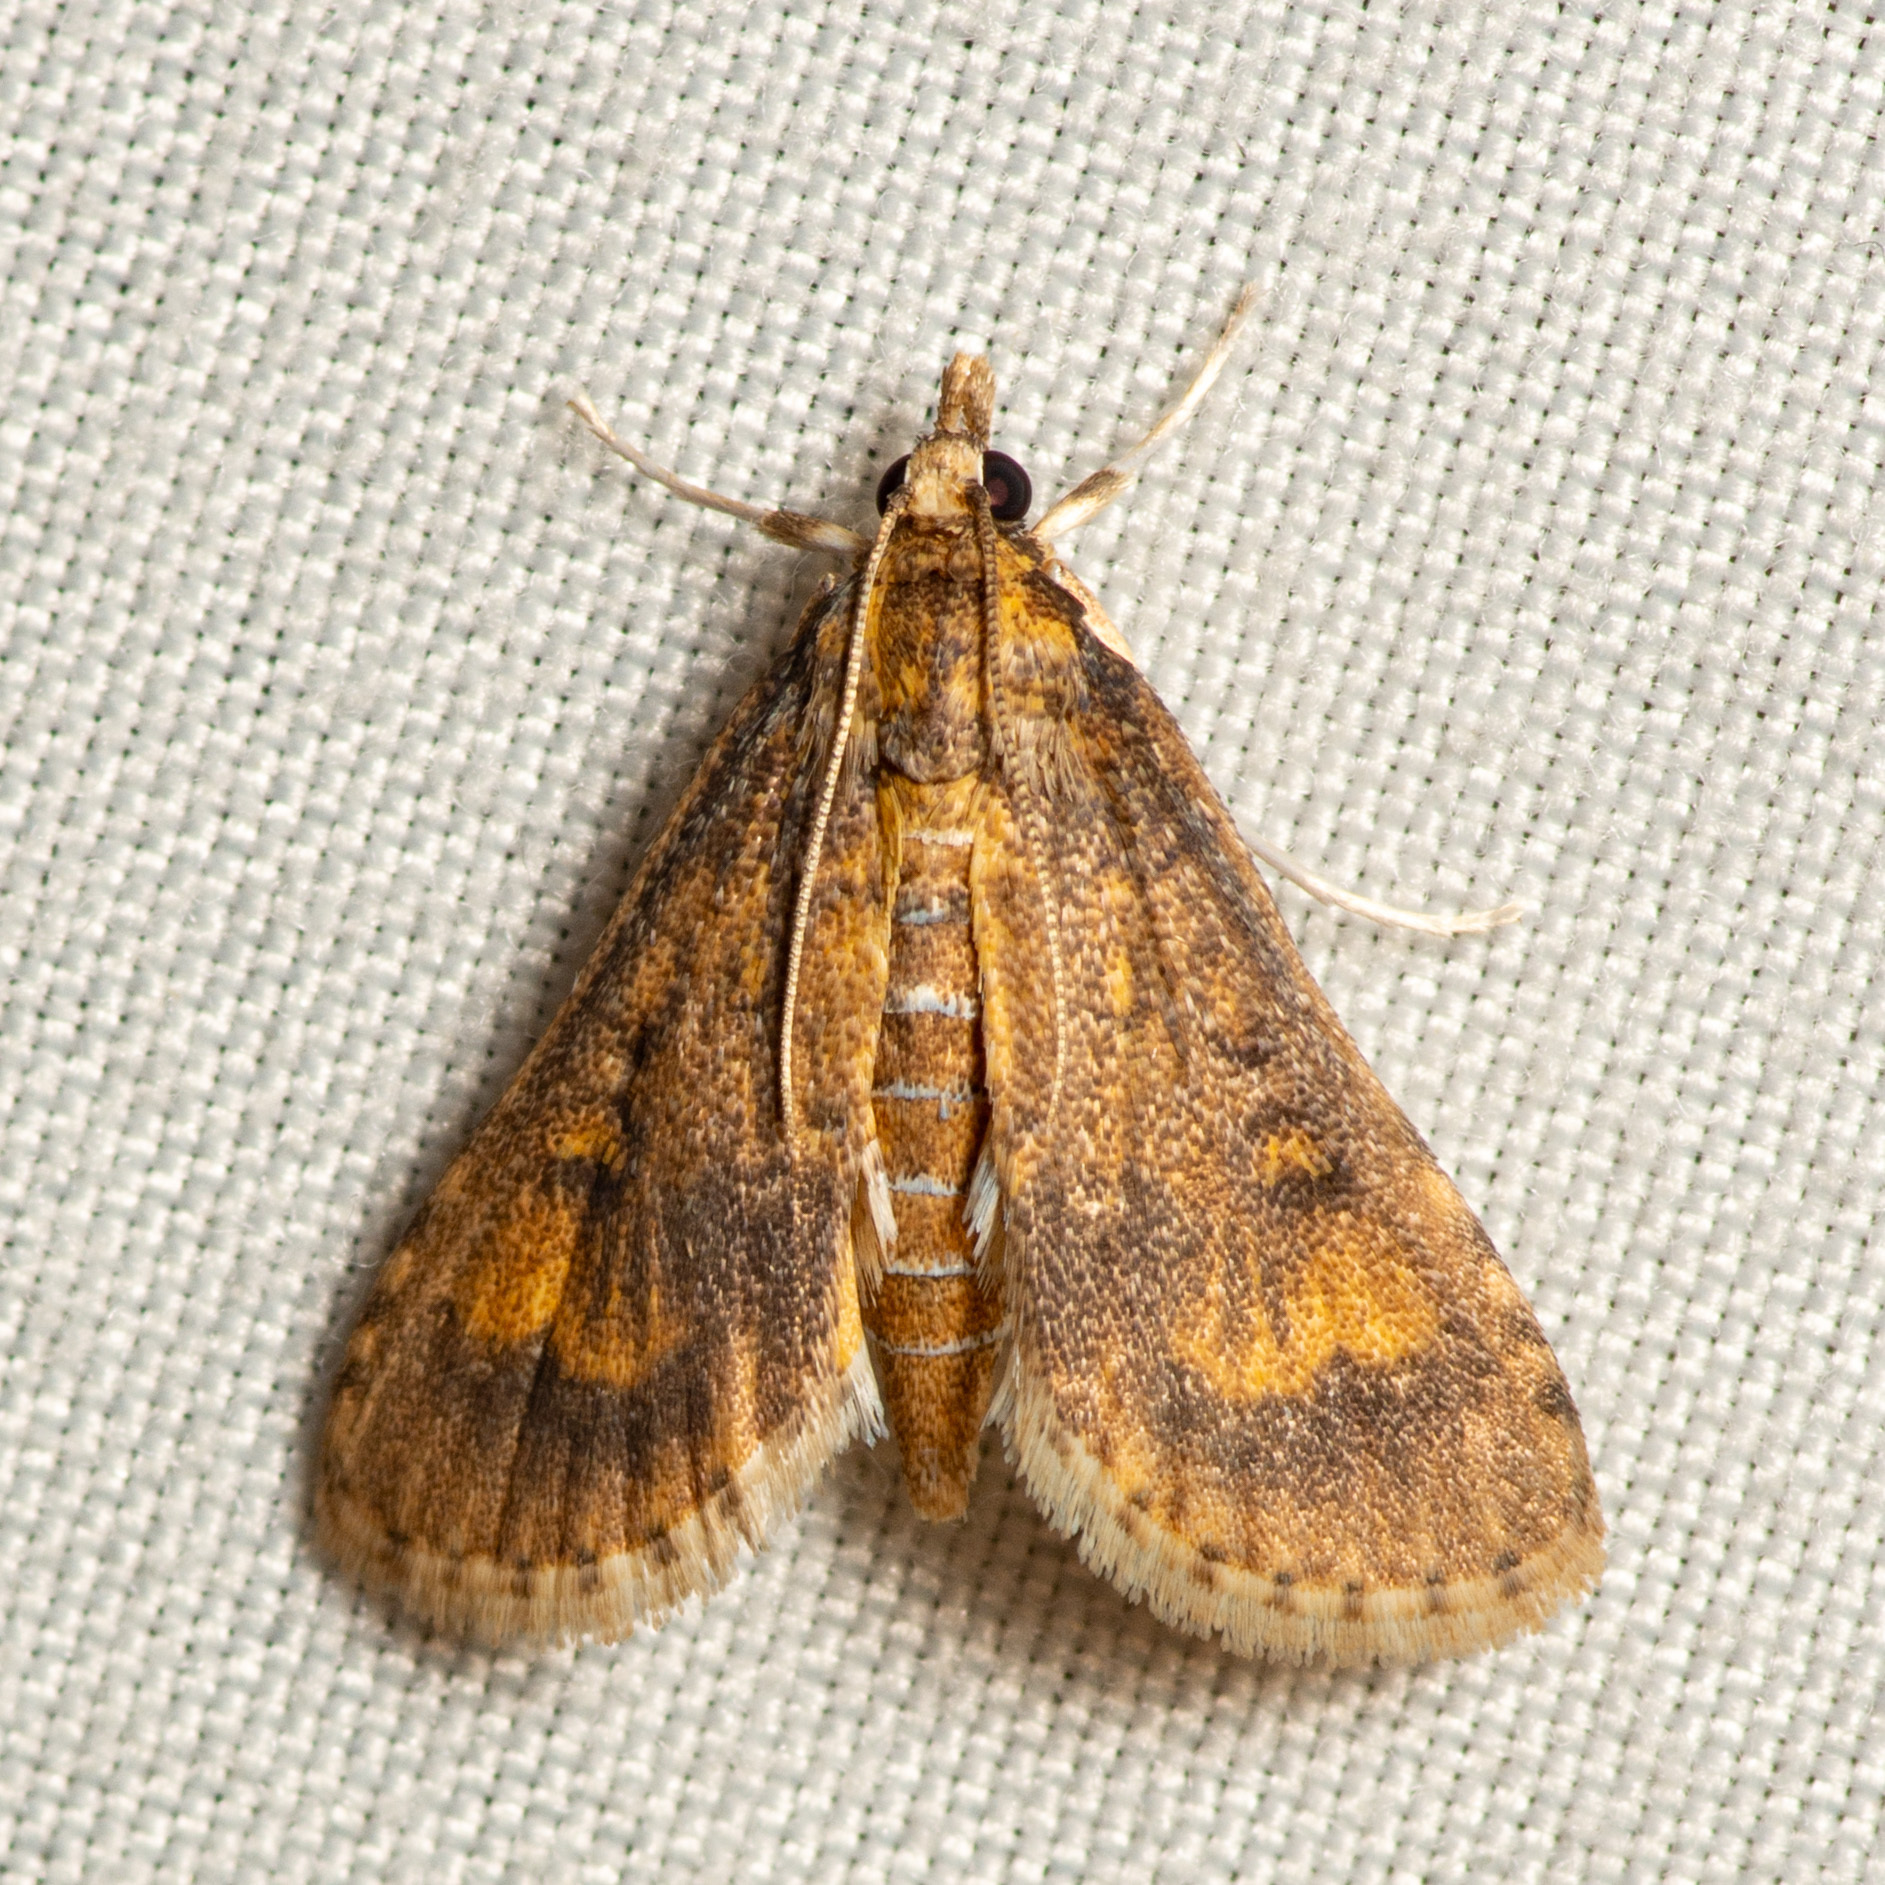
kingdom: Animalia
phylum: Arthropoda
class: Insecta
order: Lepidoptera
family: Crambidae
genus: Niphograpta
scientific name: Niphograpta albiguttalis
